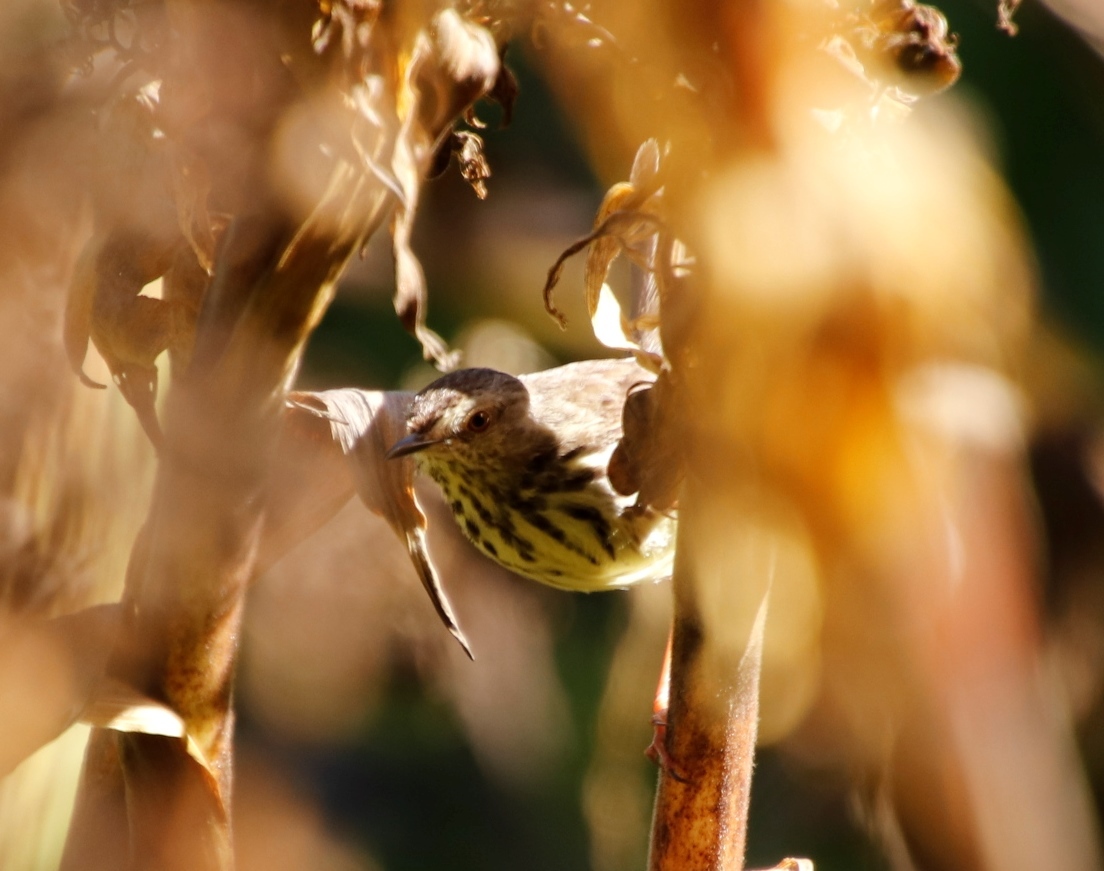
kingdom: Animalia
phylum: Chordata
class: Aves
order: Passeriformes
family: Cisticolidae
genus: Prinia
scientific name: Prinia maculosa
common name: Karoo prinia
